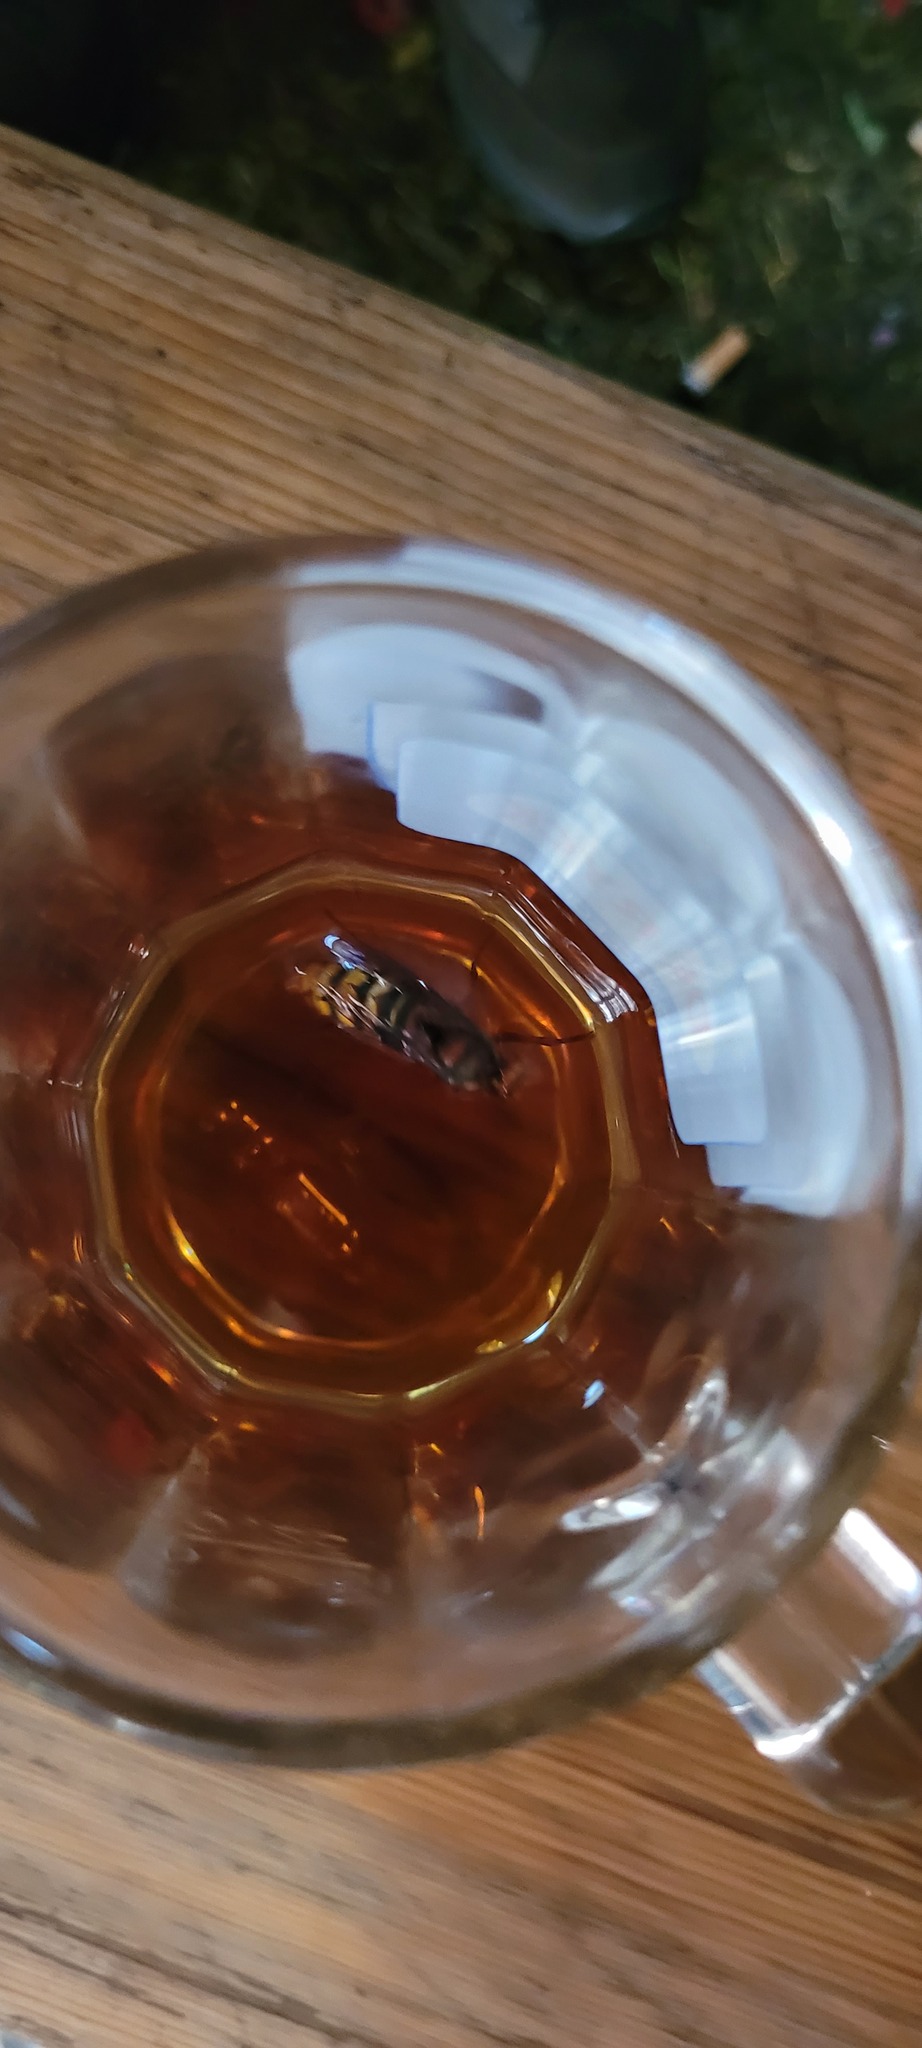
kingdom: Animalia
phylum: Arthropoda
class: Insecta
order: Hymenoptera
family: Vespidae
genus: Vespa
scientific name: Vespa crabro
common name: Hornet
